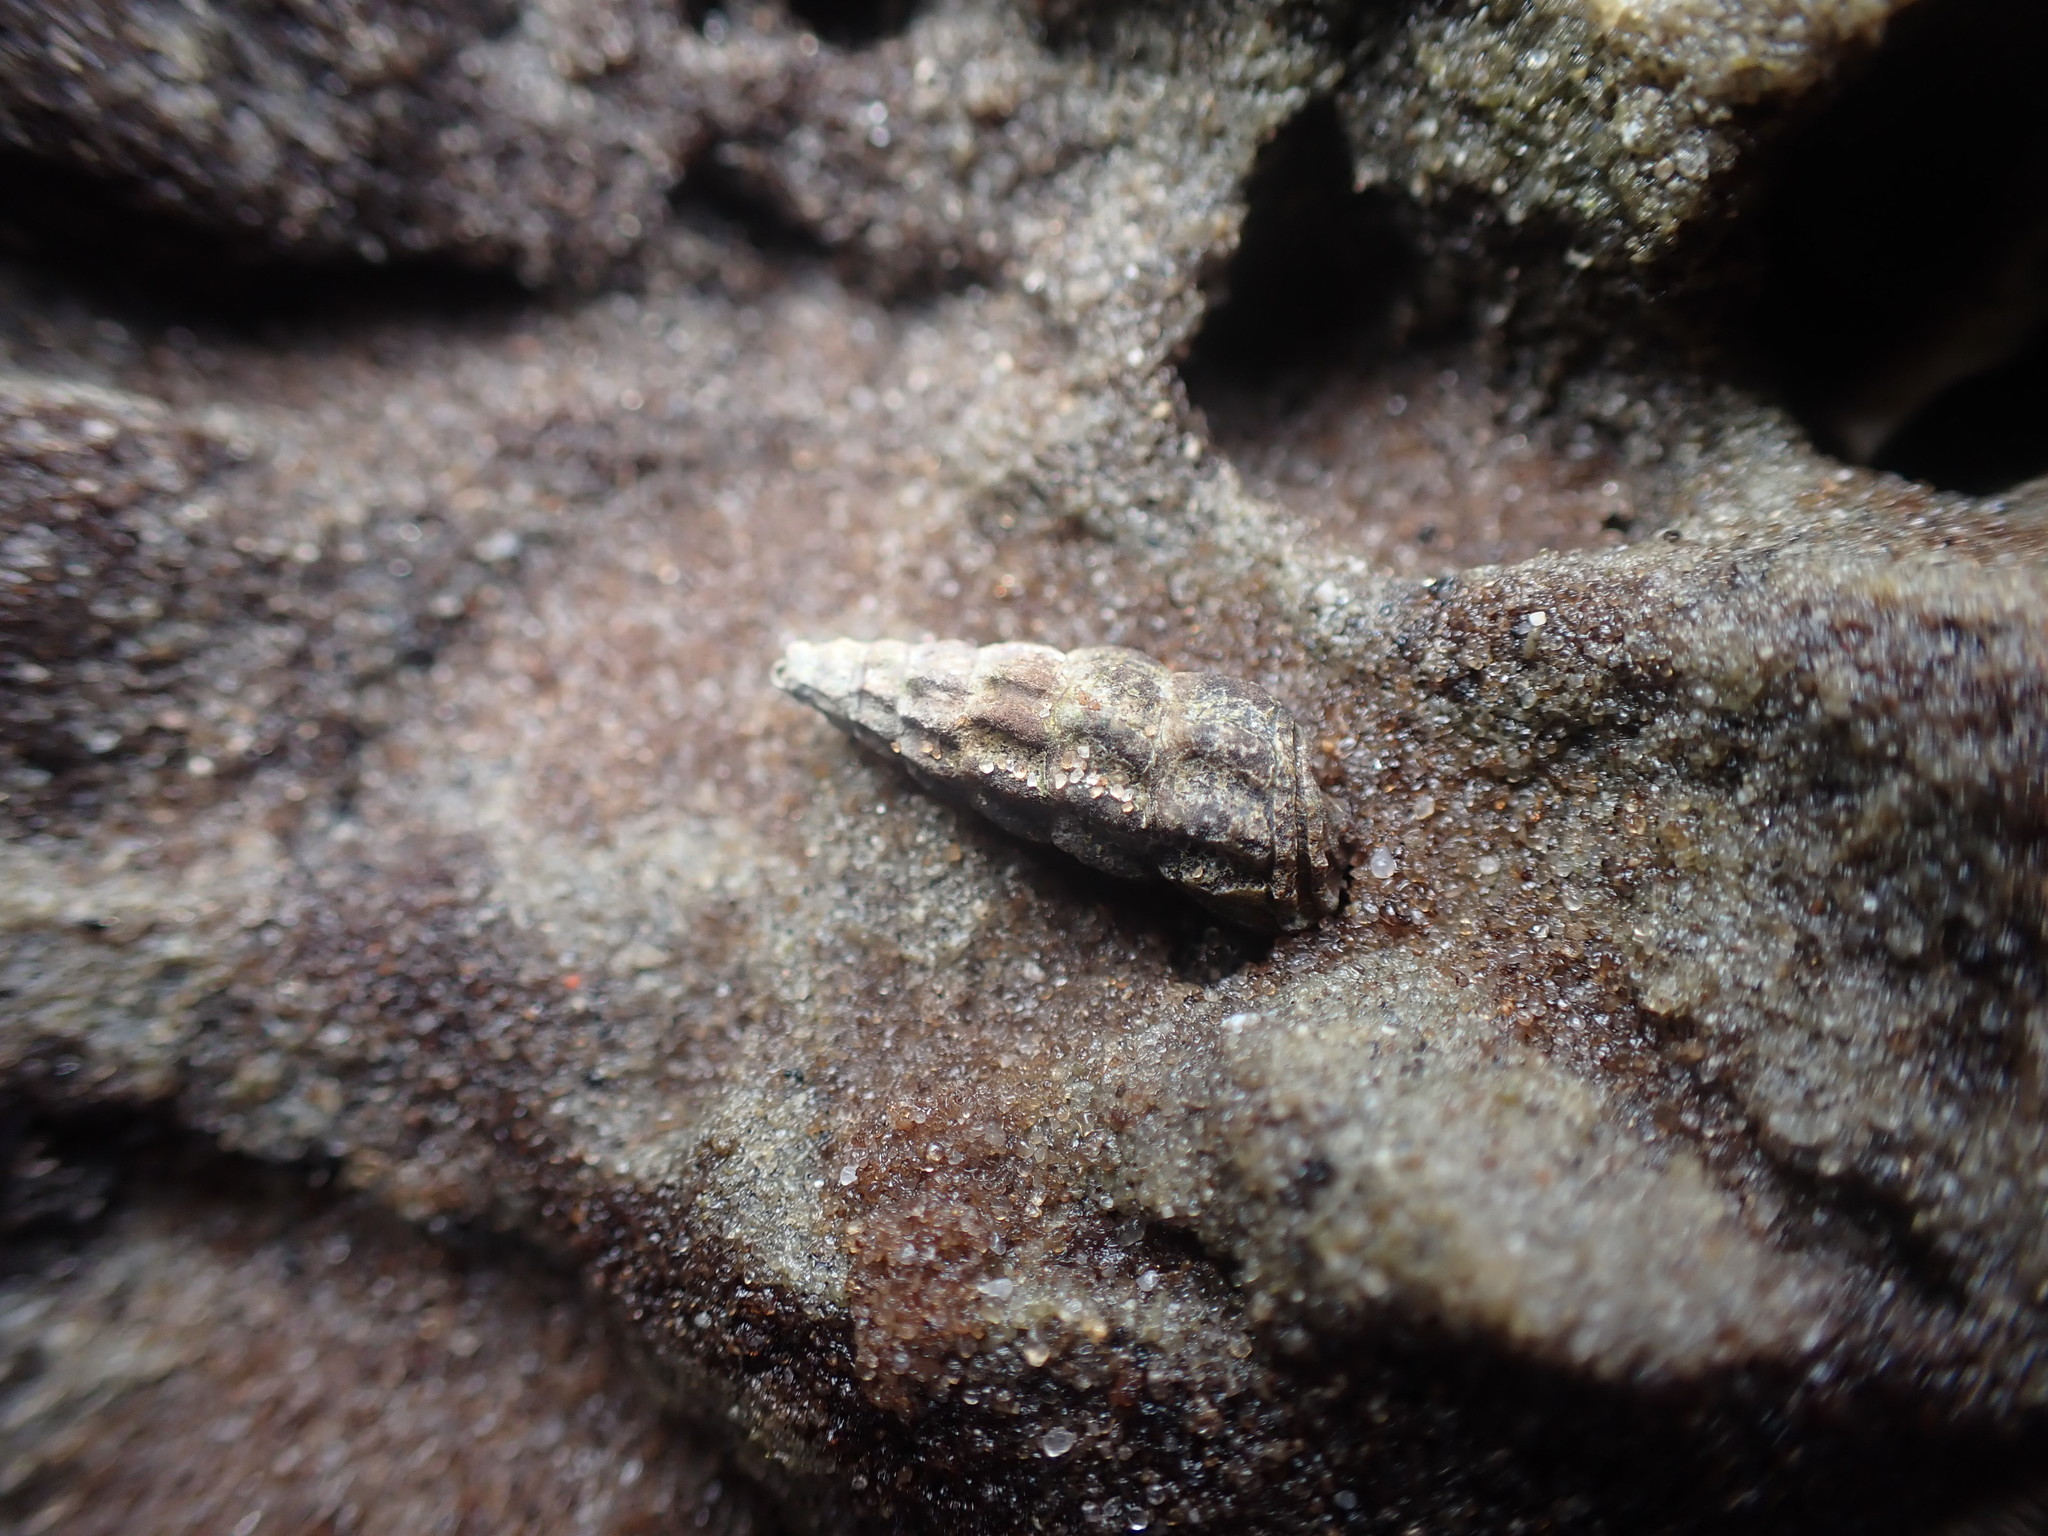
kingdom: Animalia
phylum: Mollusca
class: Gastropoda
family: Batillariidae
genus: Zeacumantus
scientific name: Zeacumantus lutulentus
